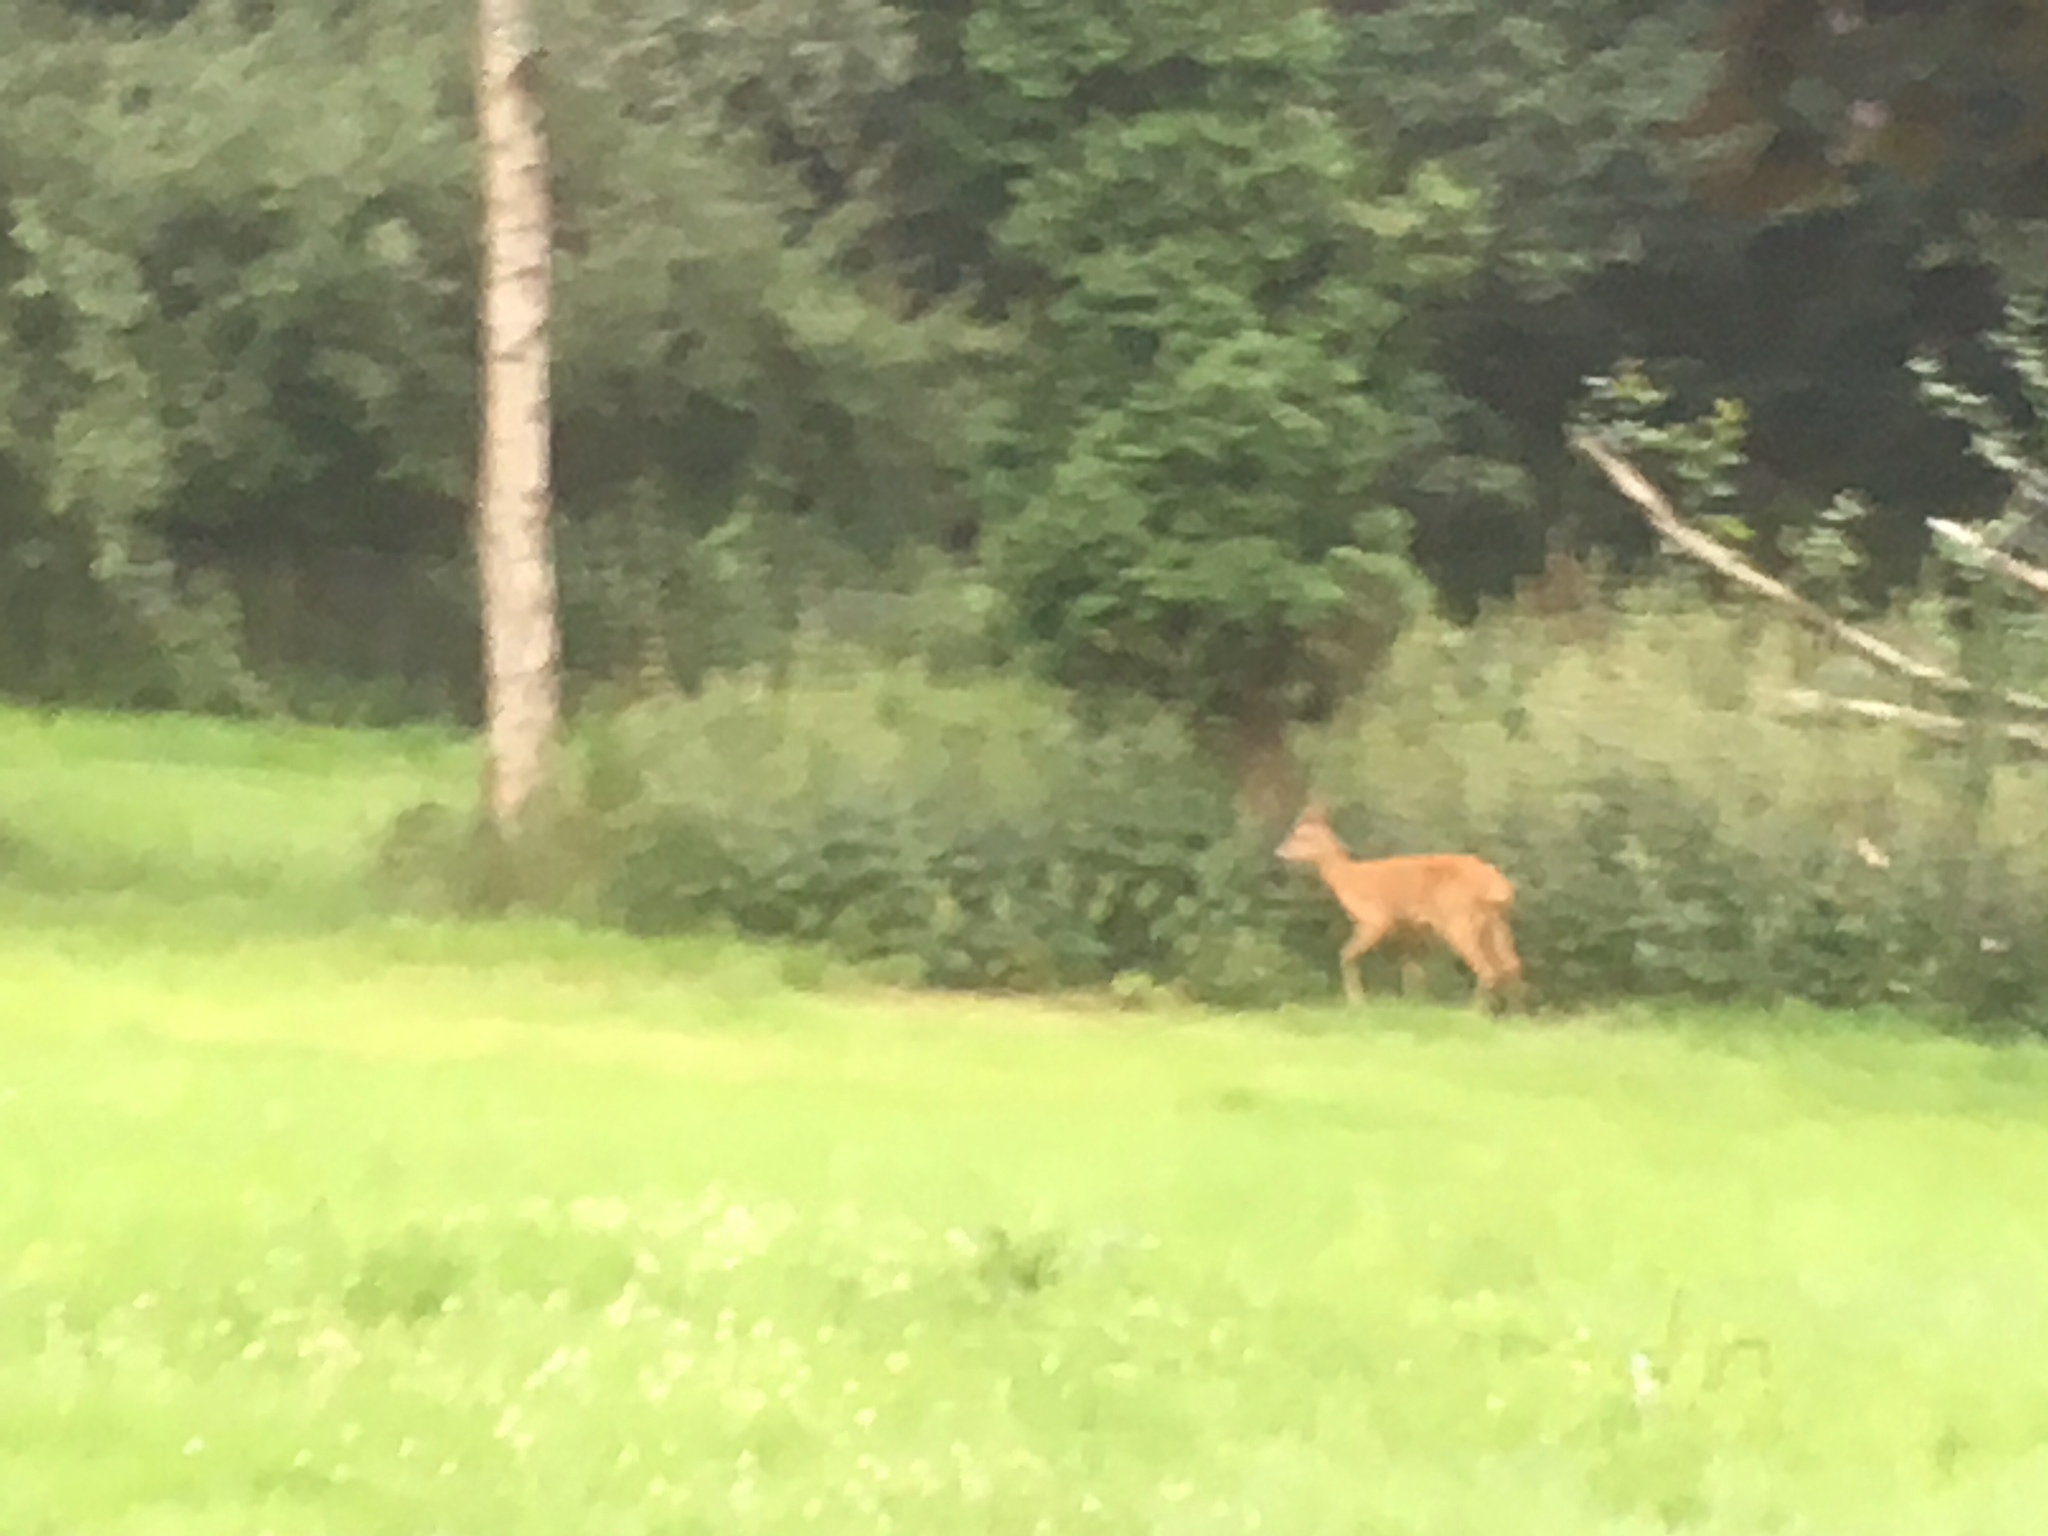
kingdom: Animalia
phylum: Chordata
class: Mammalia
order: Artiodactyla
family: Cervidae
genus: Capreolus
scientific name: Capreolus capreolus
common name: Western roe deer
